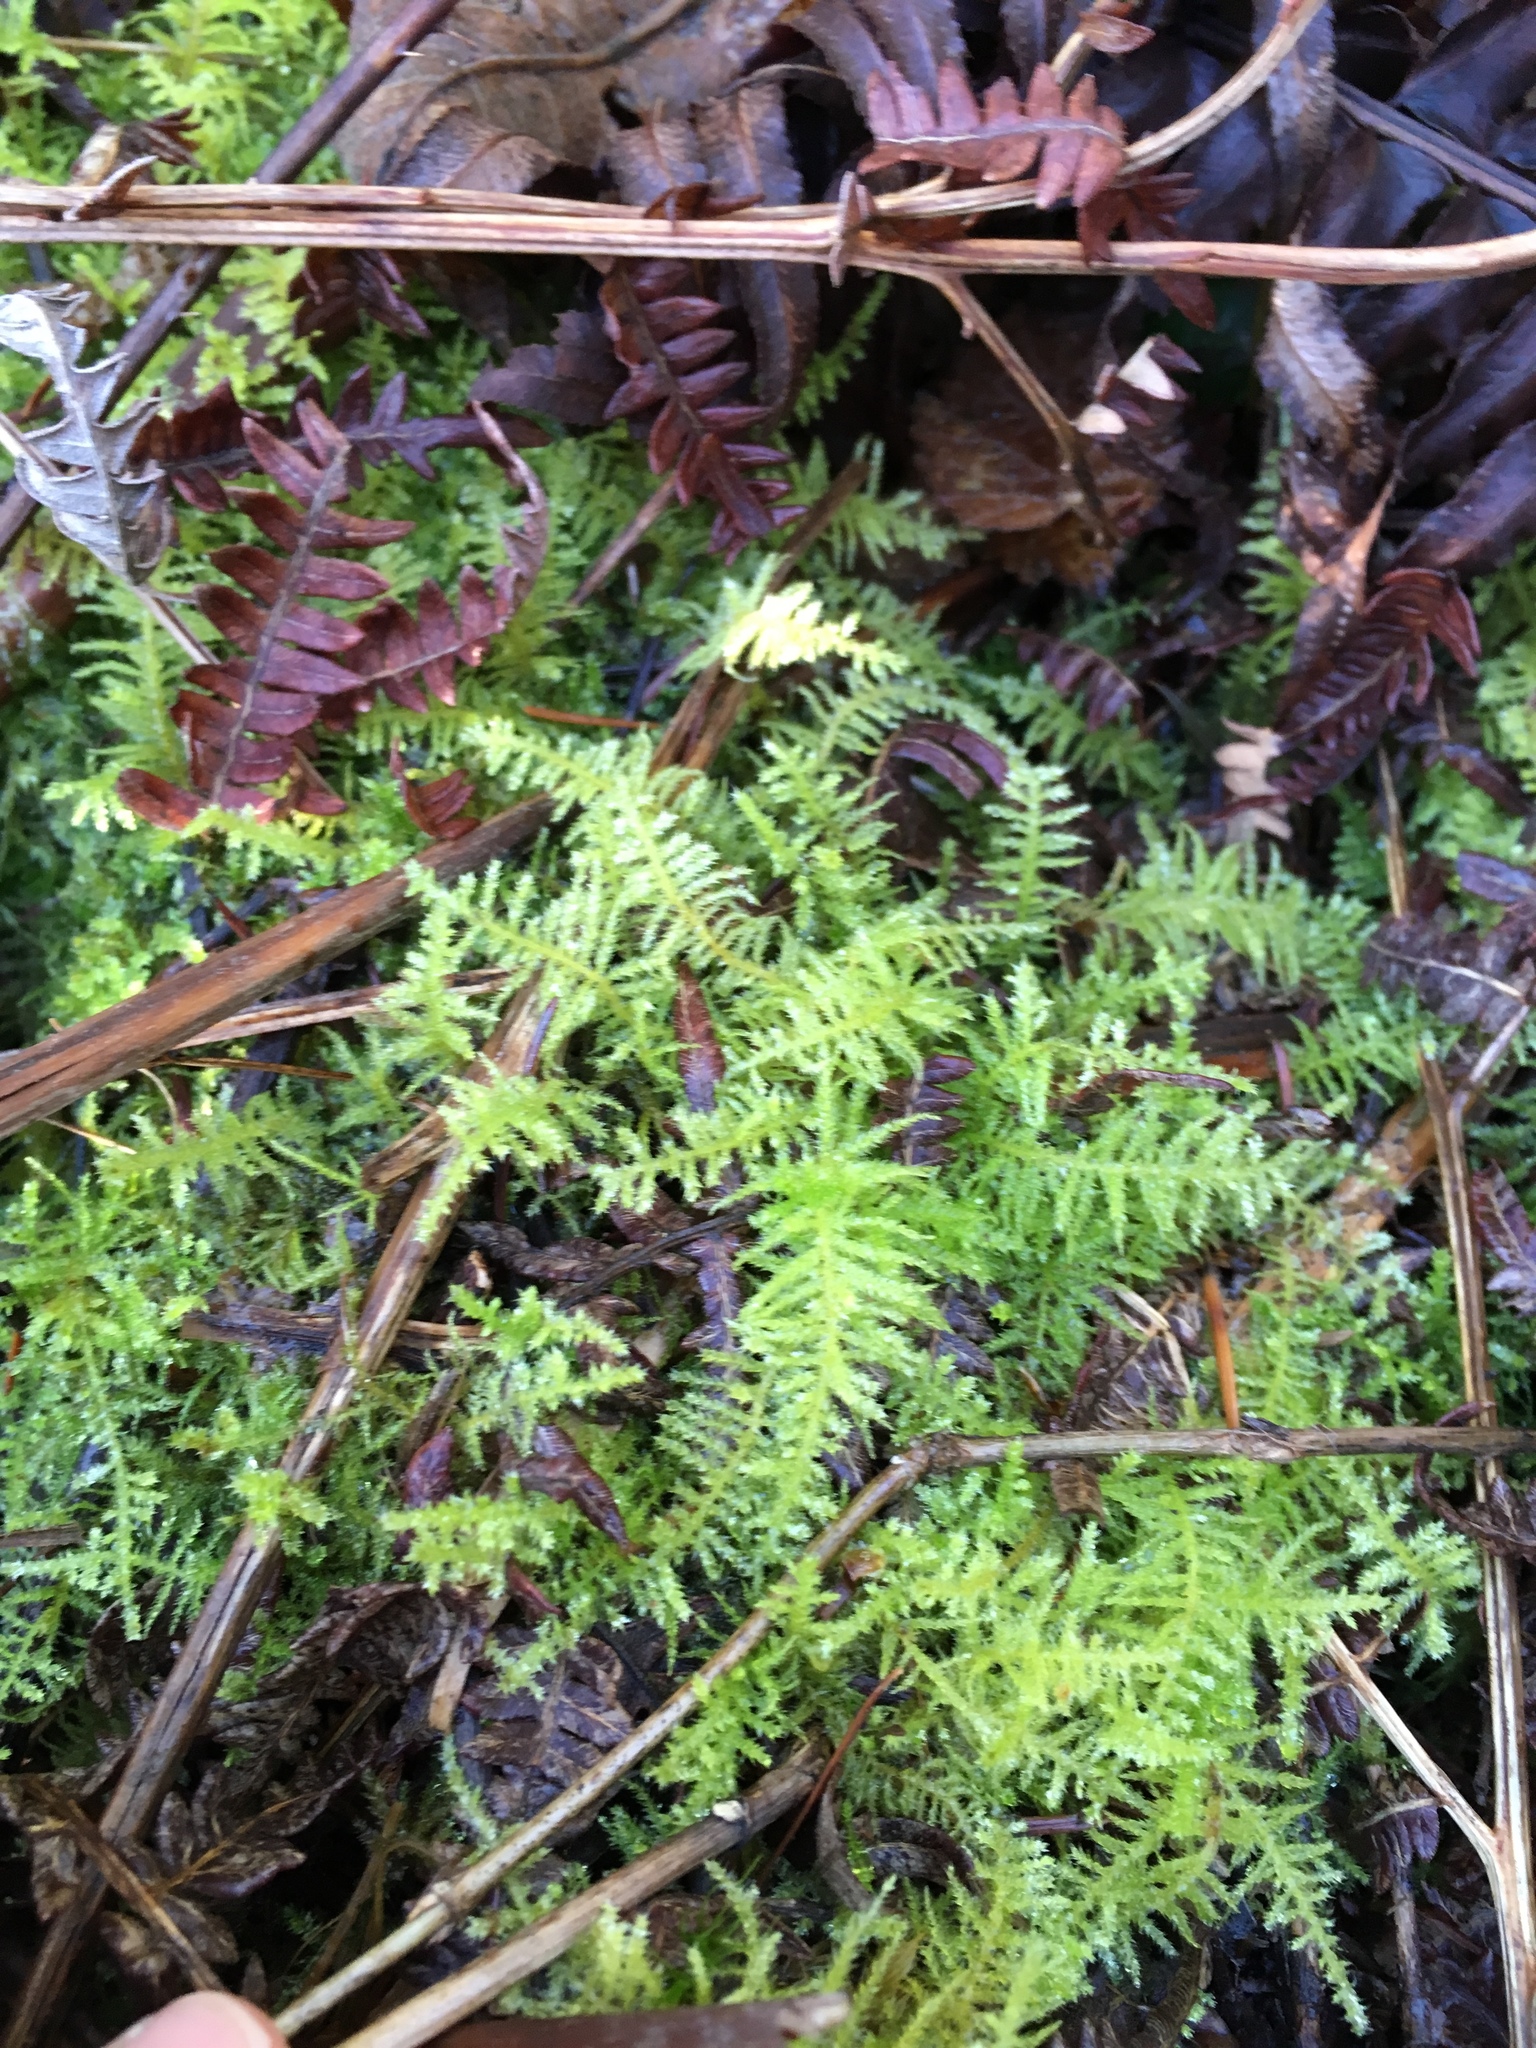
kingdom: Plantae
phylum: Bryophyta
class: Bryopsida
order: Hypnales
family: Brachytheciaceae
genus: Kindbergia
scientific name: Kindbergia oregana
